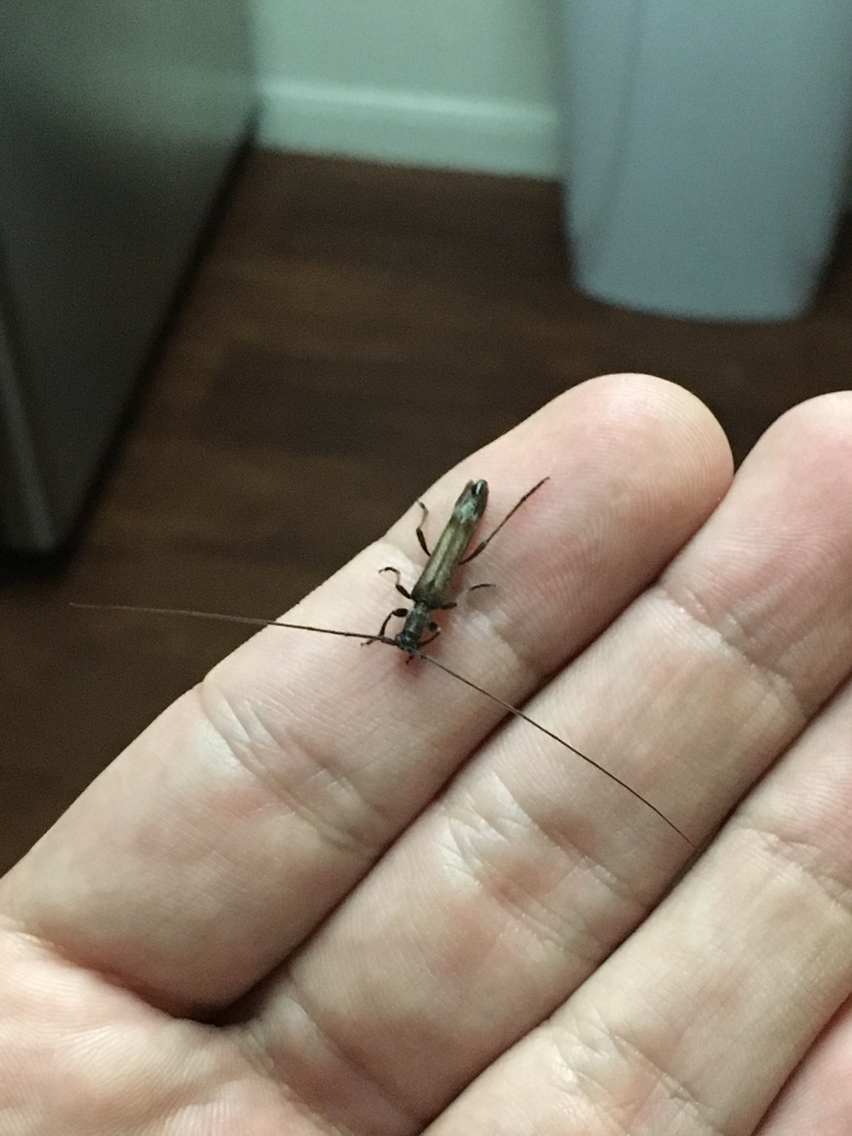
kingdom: Animalia
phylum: Arthropoda
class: Insecta
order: Coleoptera
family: Cerambycidae
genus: Styloxus
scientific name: Styloxus fulleri
